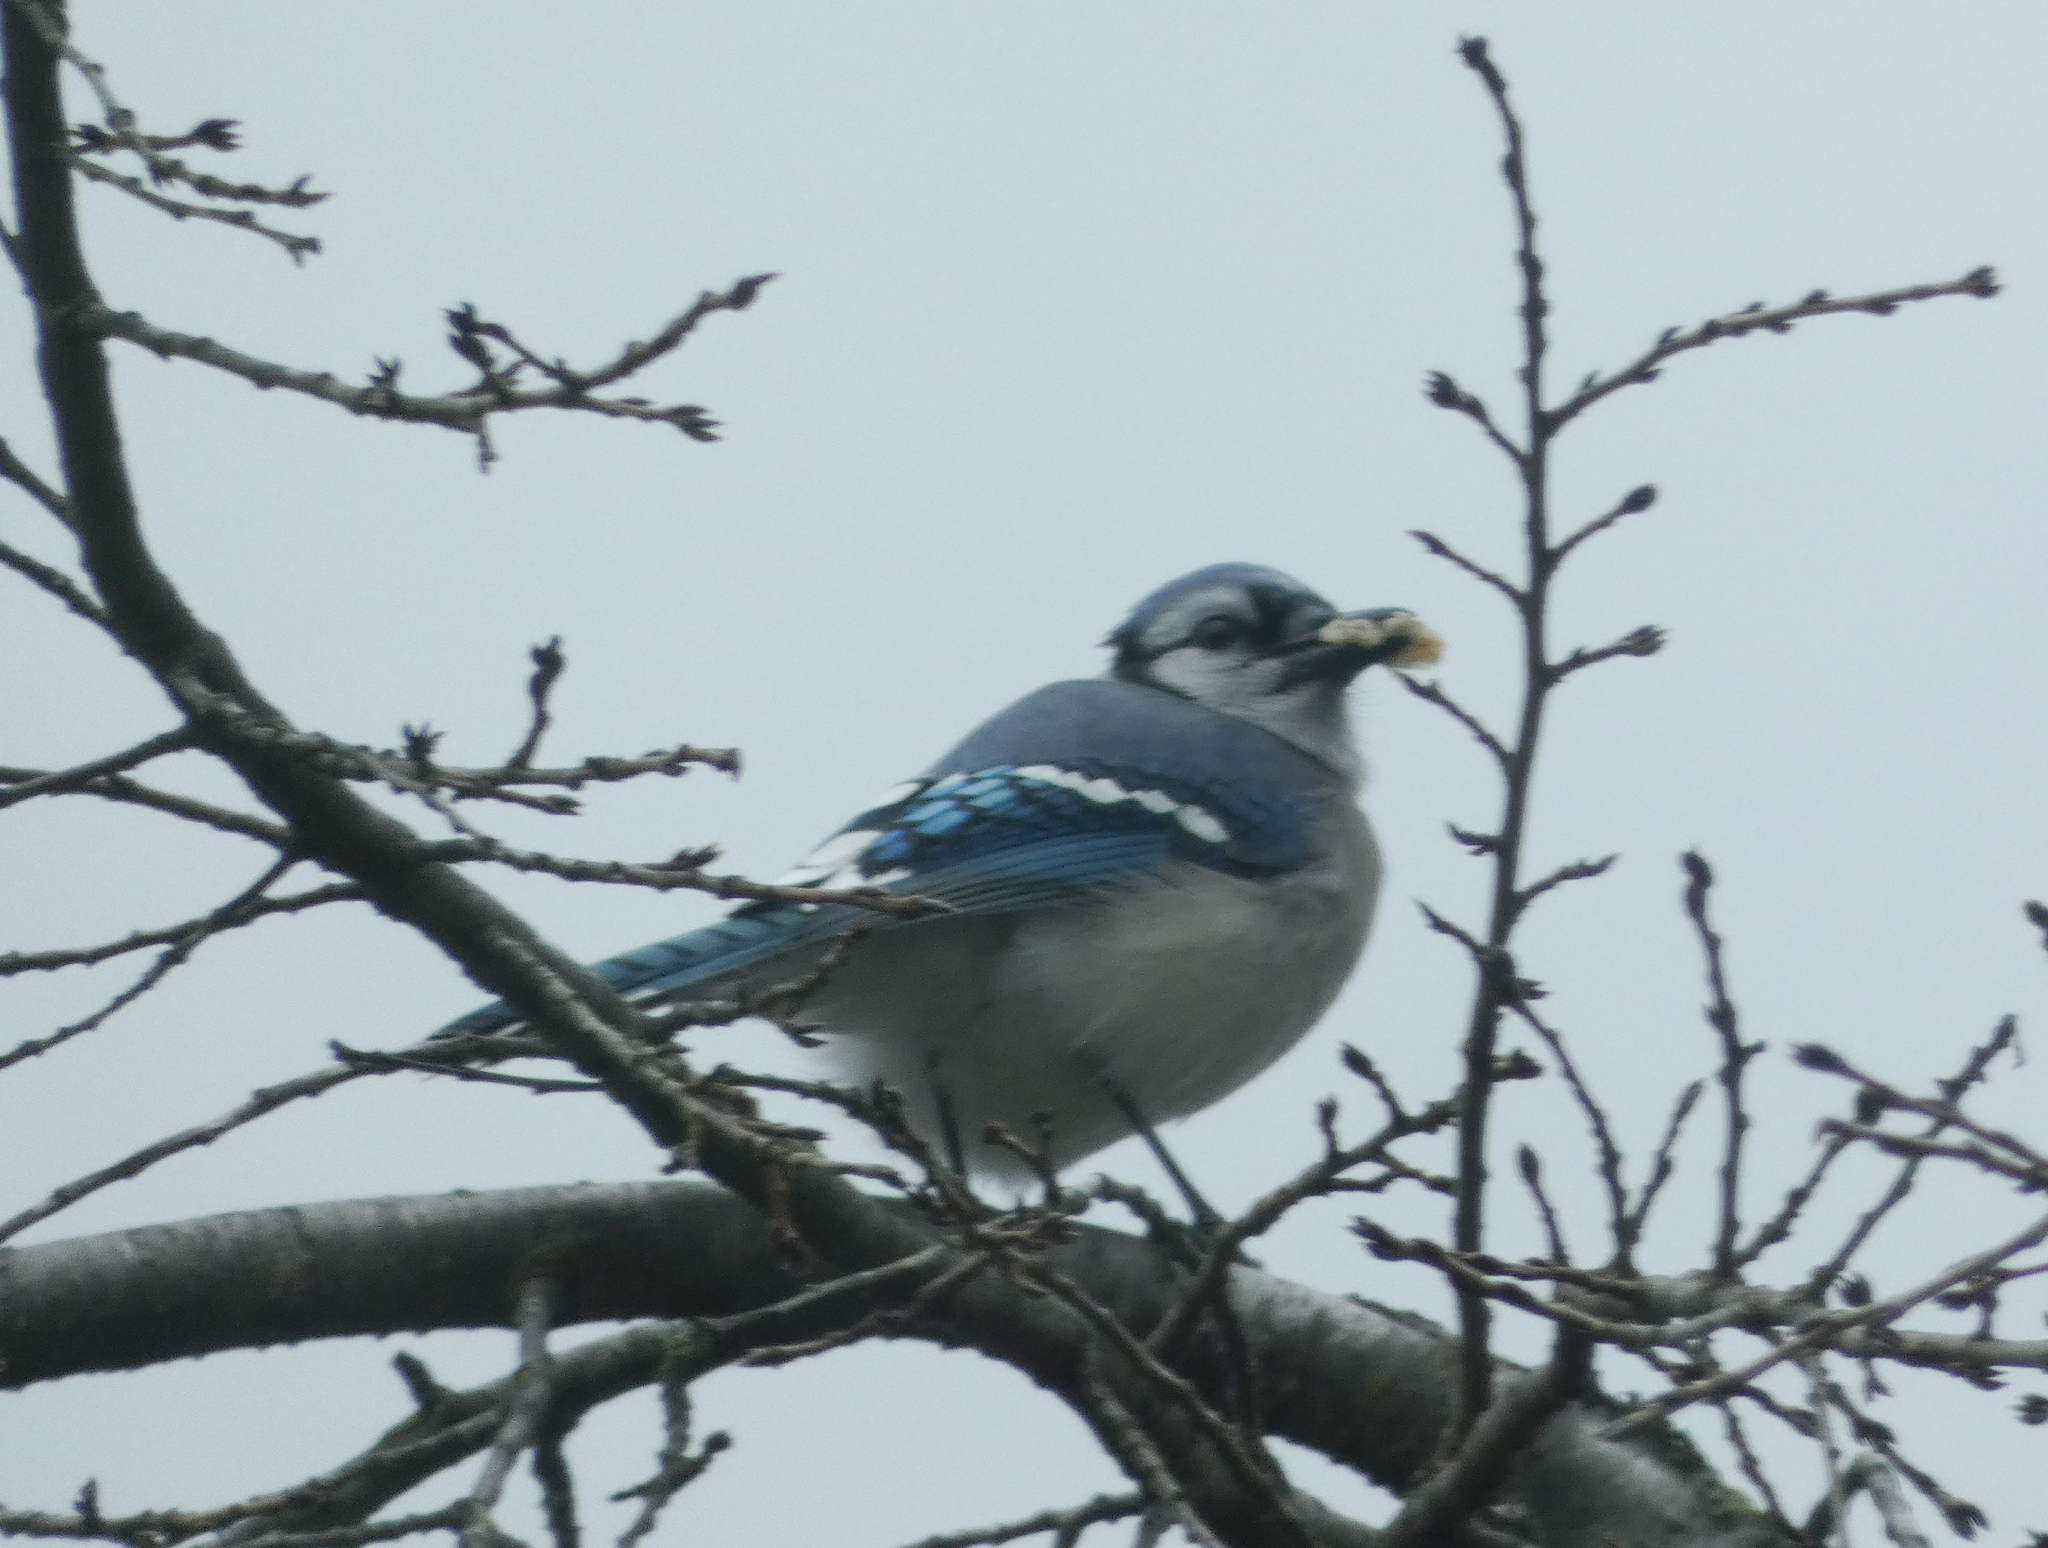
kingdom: Animalia
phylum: Chordata
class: Aves
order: Passeriformes
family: Corvidae
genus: Cyanocitta
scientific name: Cyanocitta cristata
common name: Blue jay
